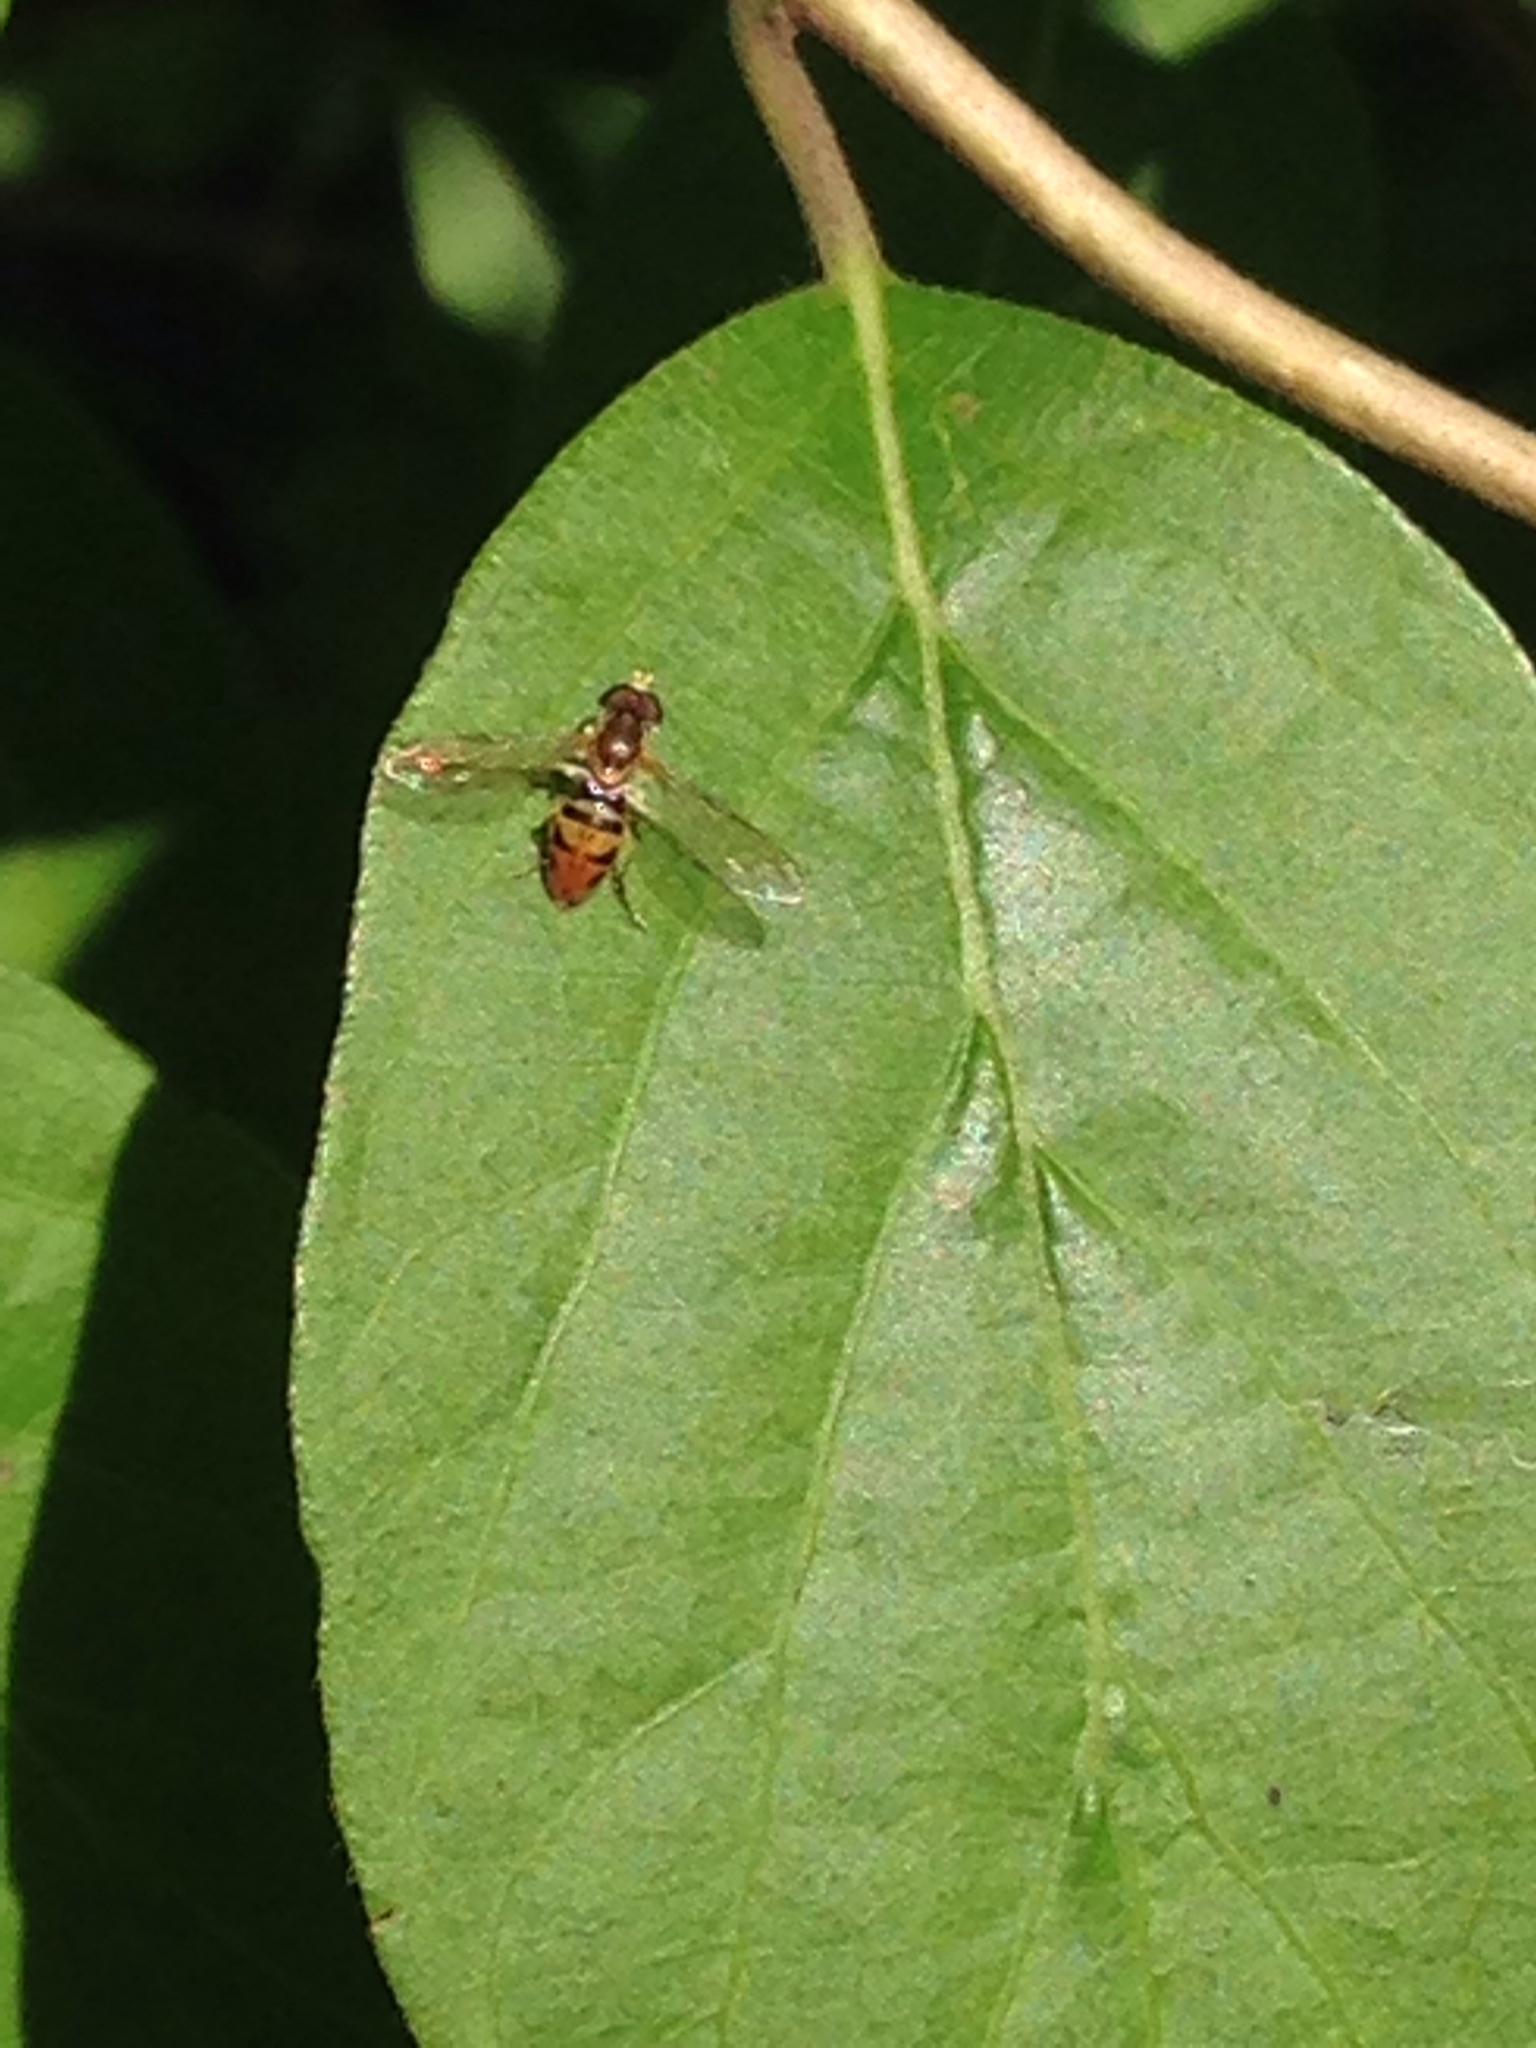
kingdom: Animalia
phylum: Arthropoda
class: Insecta
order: Diptera
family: Syrphidae
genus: Toxomerus
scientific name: Toxomerus marginatus
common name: Syrphid fly
